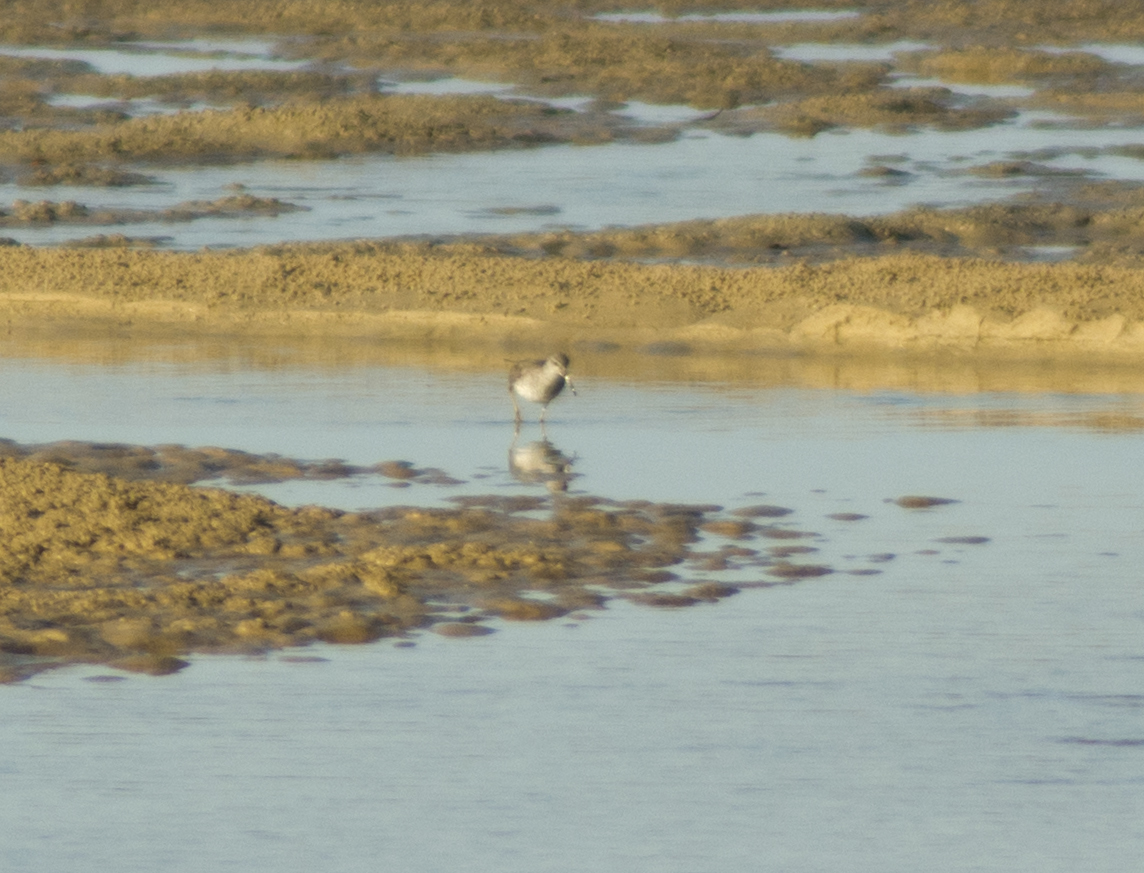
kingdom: Animalia
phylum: Chordata
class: Aves
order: Charadriiformes
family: Scolopacidae
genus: Calidris
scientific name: Calidris acuminata
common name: Sharp-tailed sandpiper
